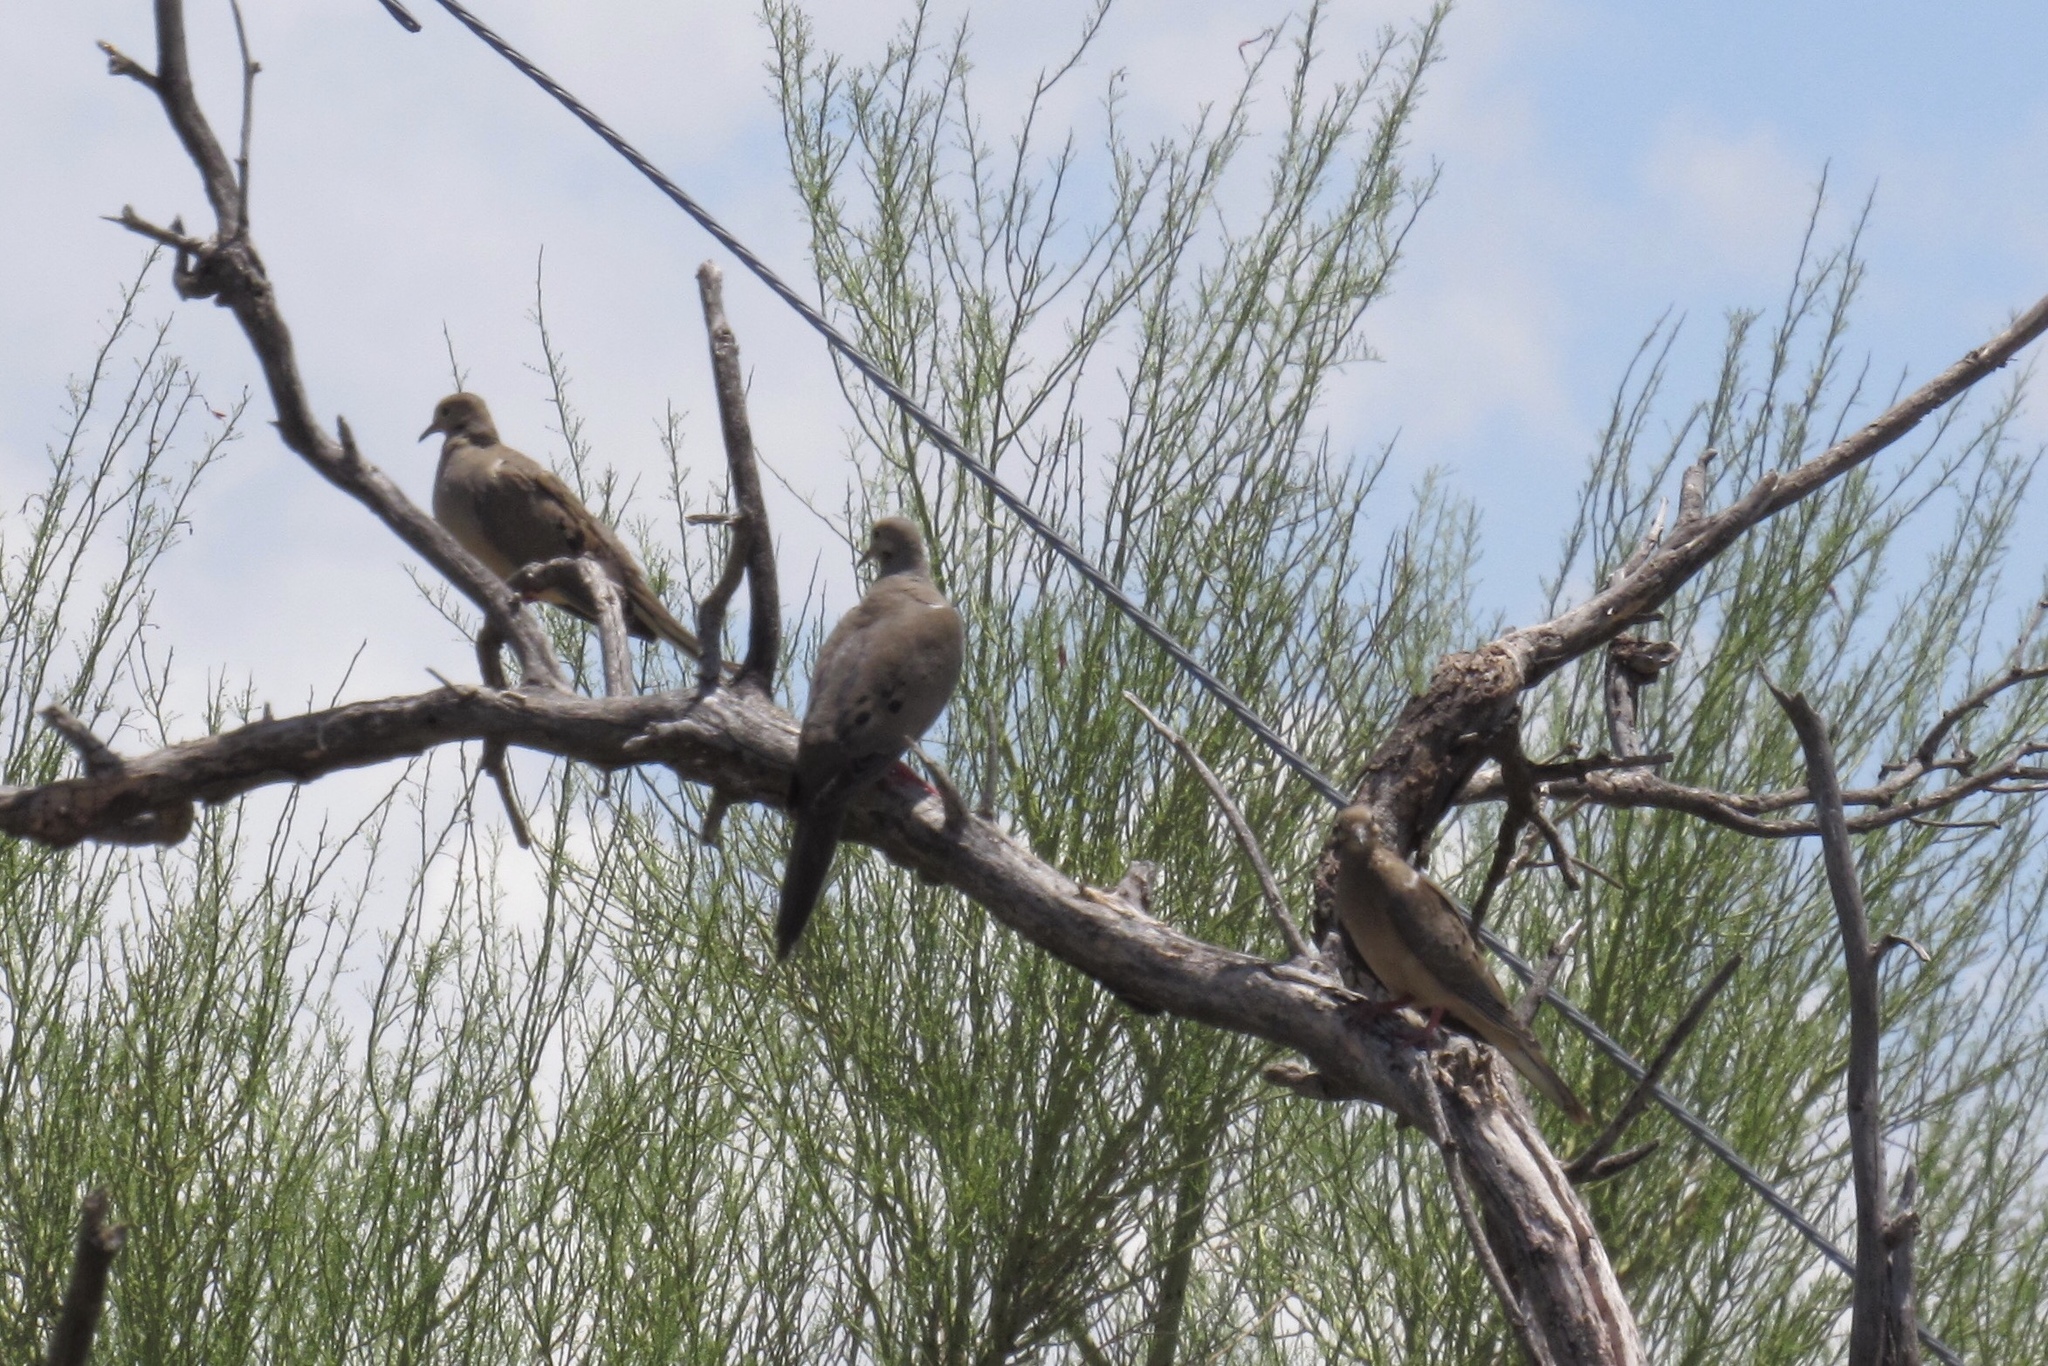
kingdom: Animalia
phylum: Chordata
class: Aves
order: Columbiformes
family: Columbidae
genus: Zenaida
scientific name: Zenaida macroura
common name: Mourning dove
